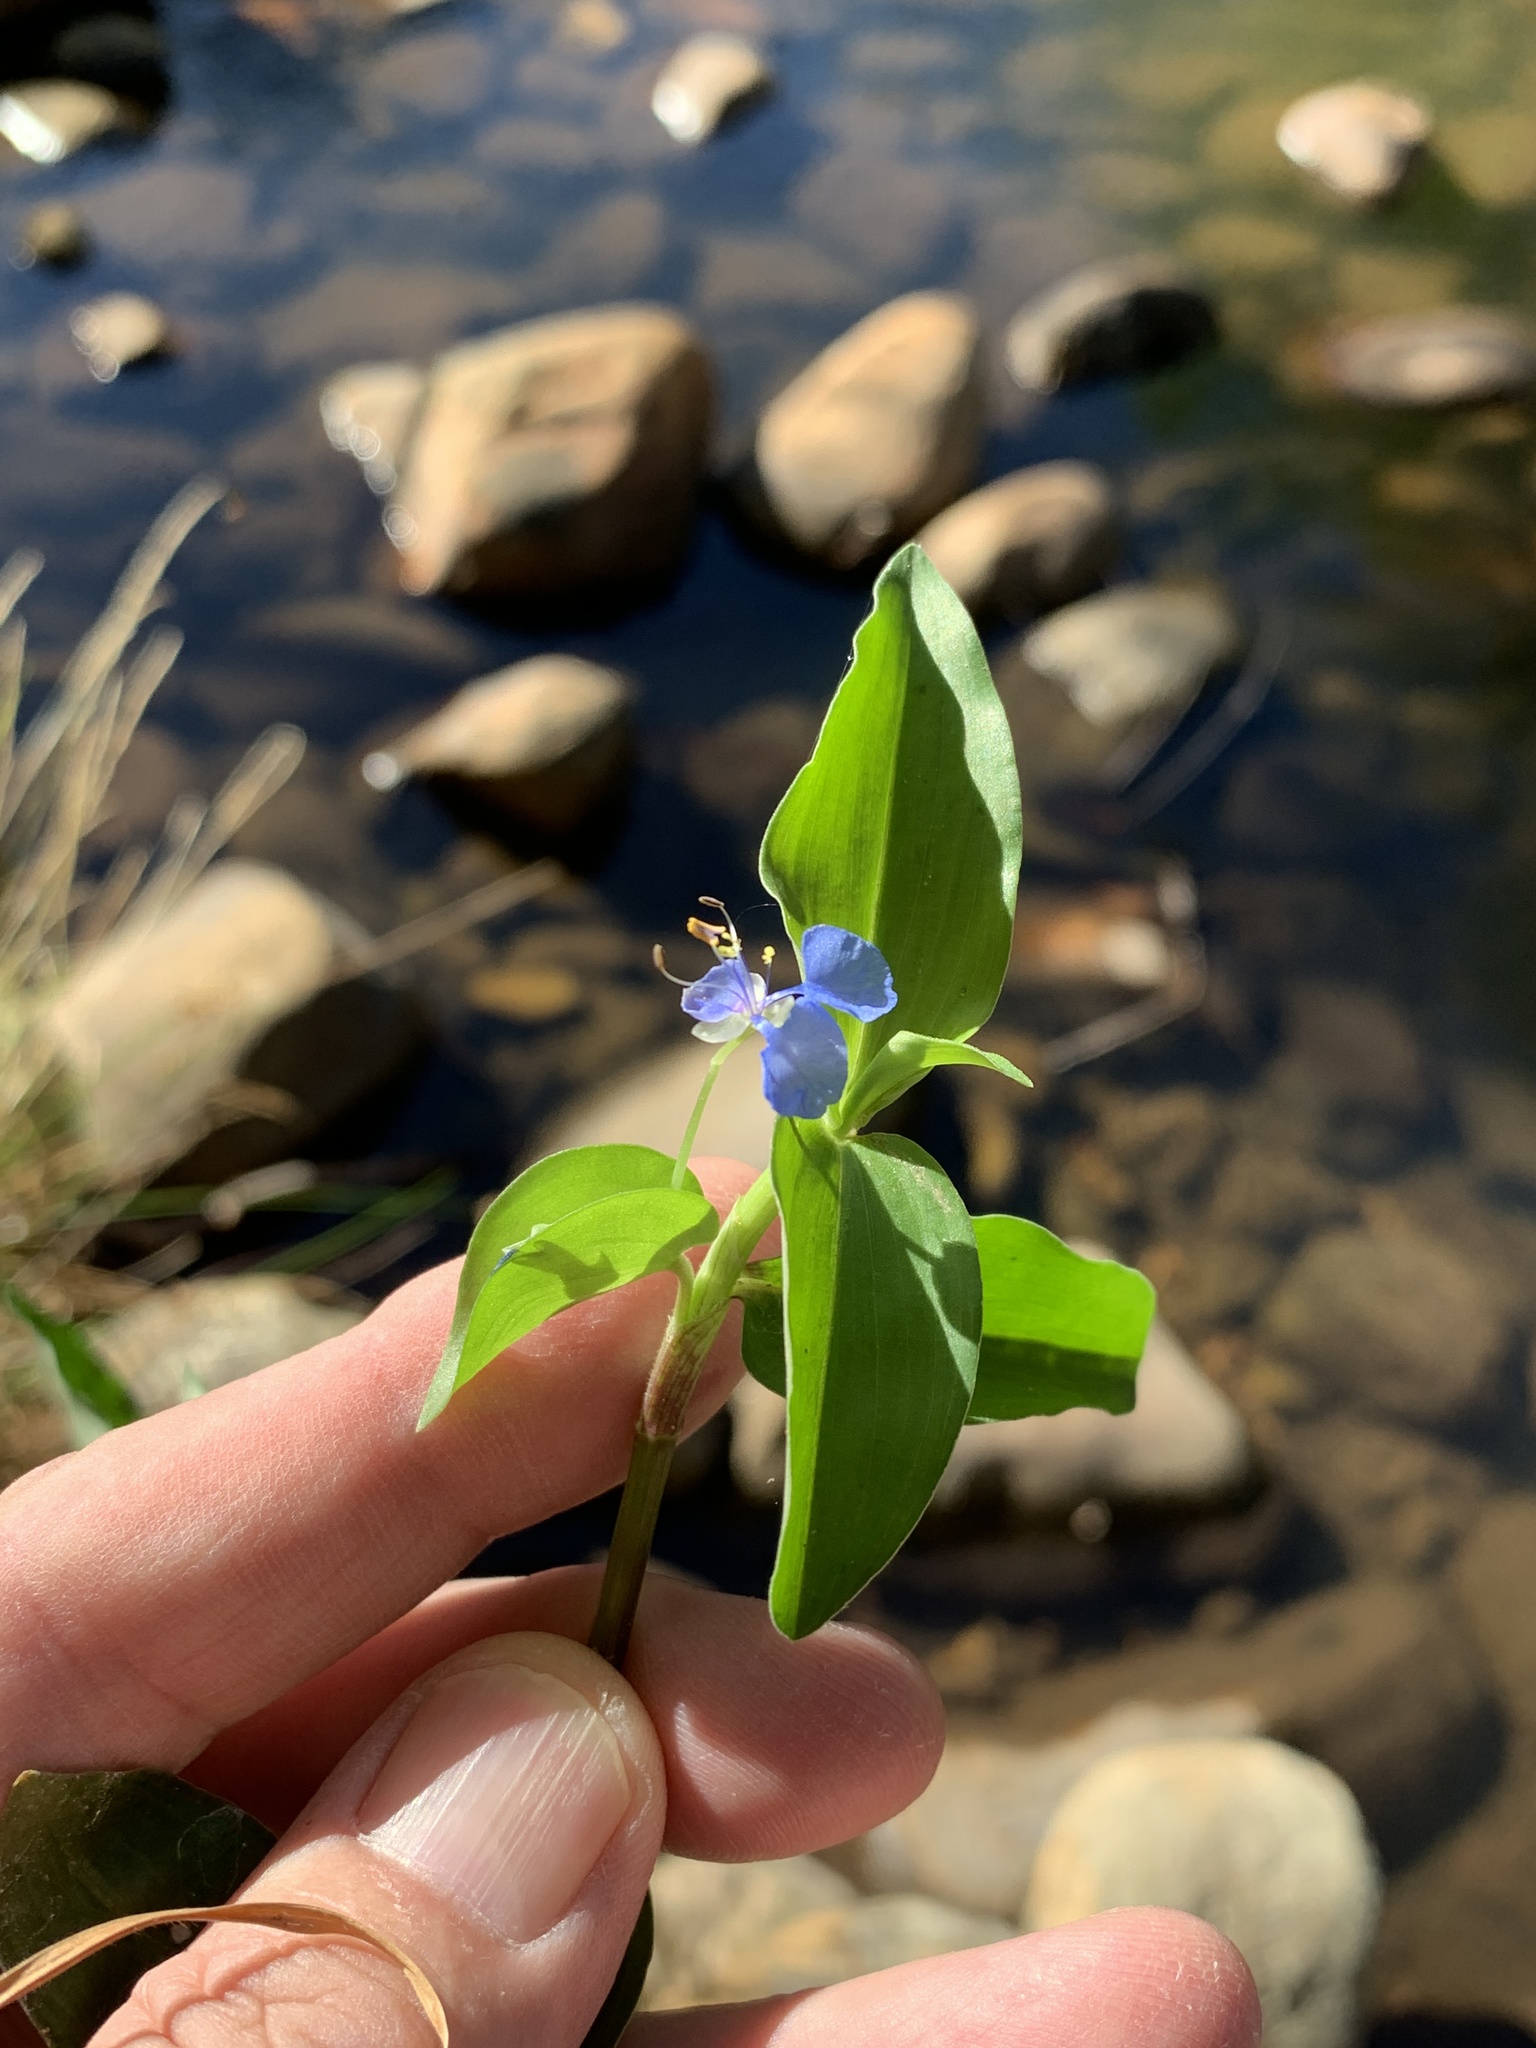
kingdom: Plantae
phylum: Tracheophyta
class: Liliopsida
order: Commelinales
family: Commelinaceae
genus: Commelina
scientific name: Commelina diffusa
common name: Climbing dayflower
